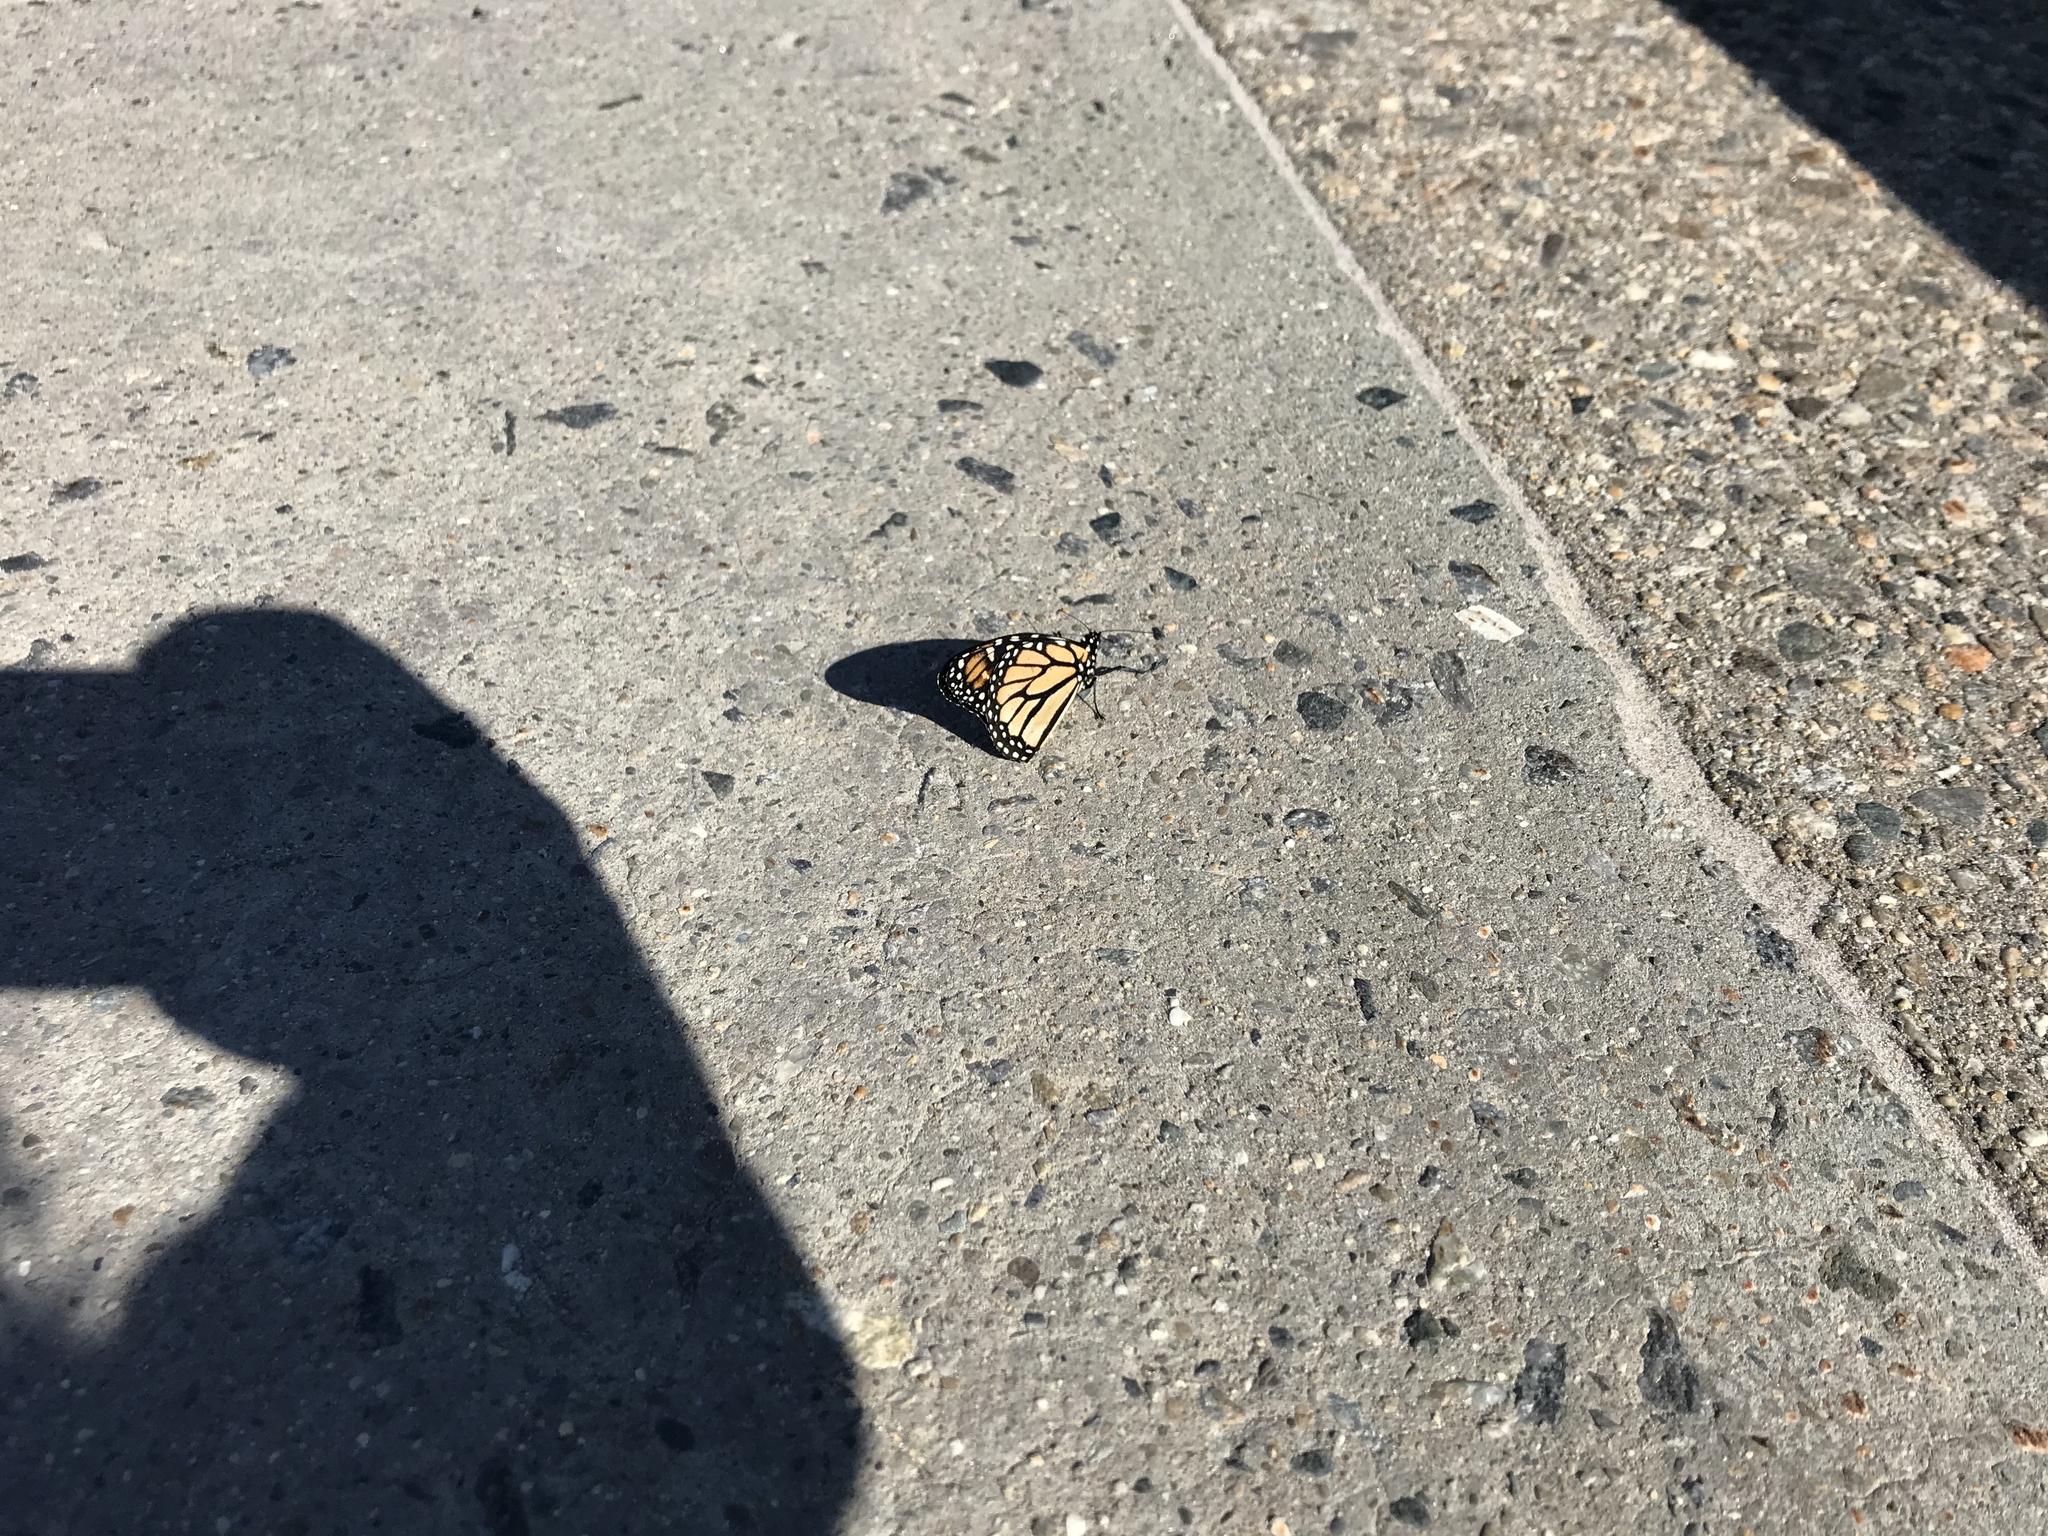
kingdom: Animalia
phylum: Arthropoda
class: Insecta
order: Lepidoptera
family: Nymphalidae
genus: Danaus
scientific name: Danaus plexippus
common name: Monarch
